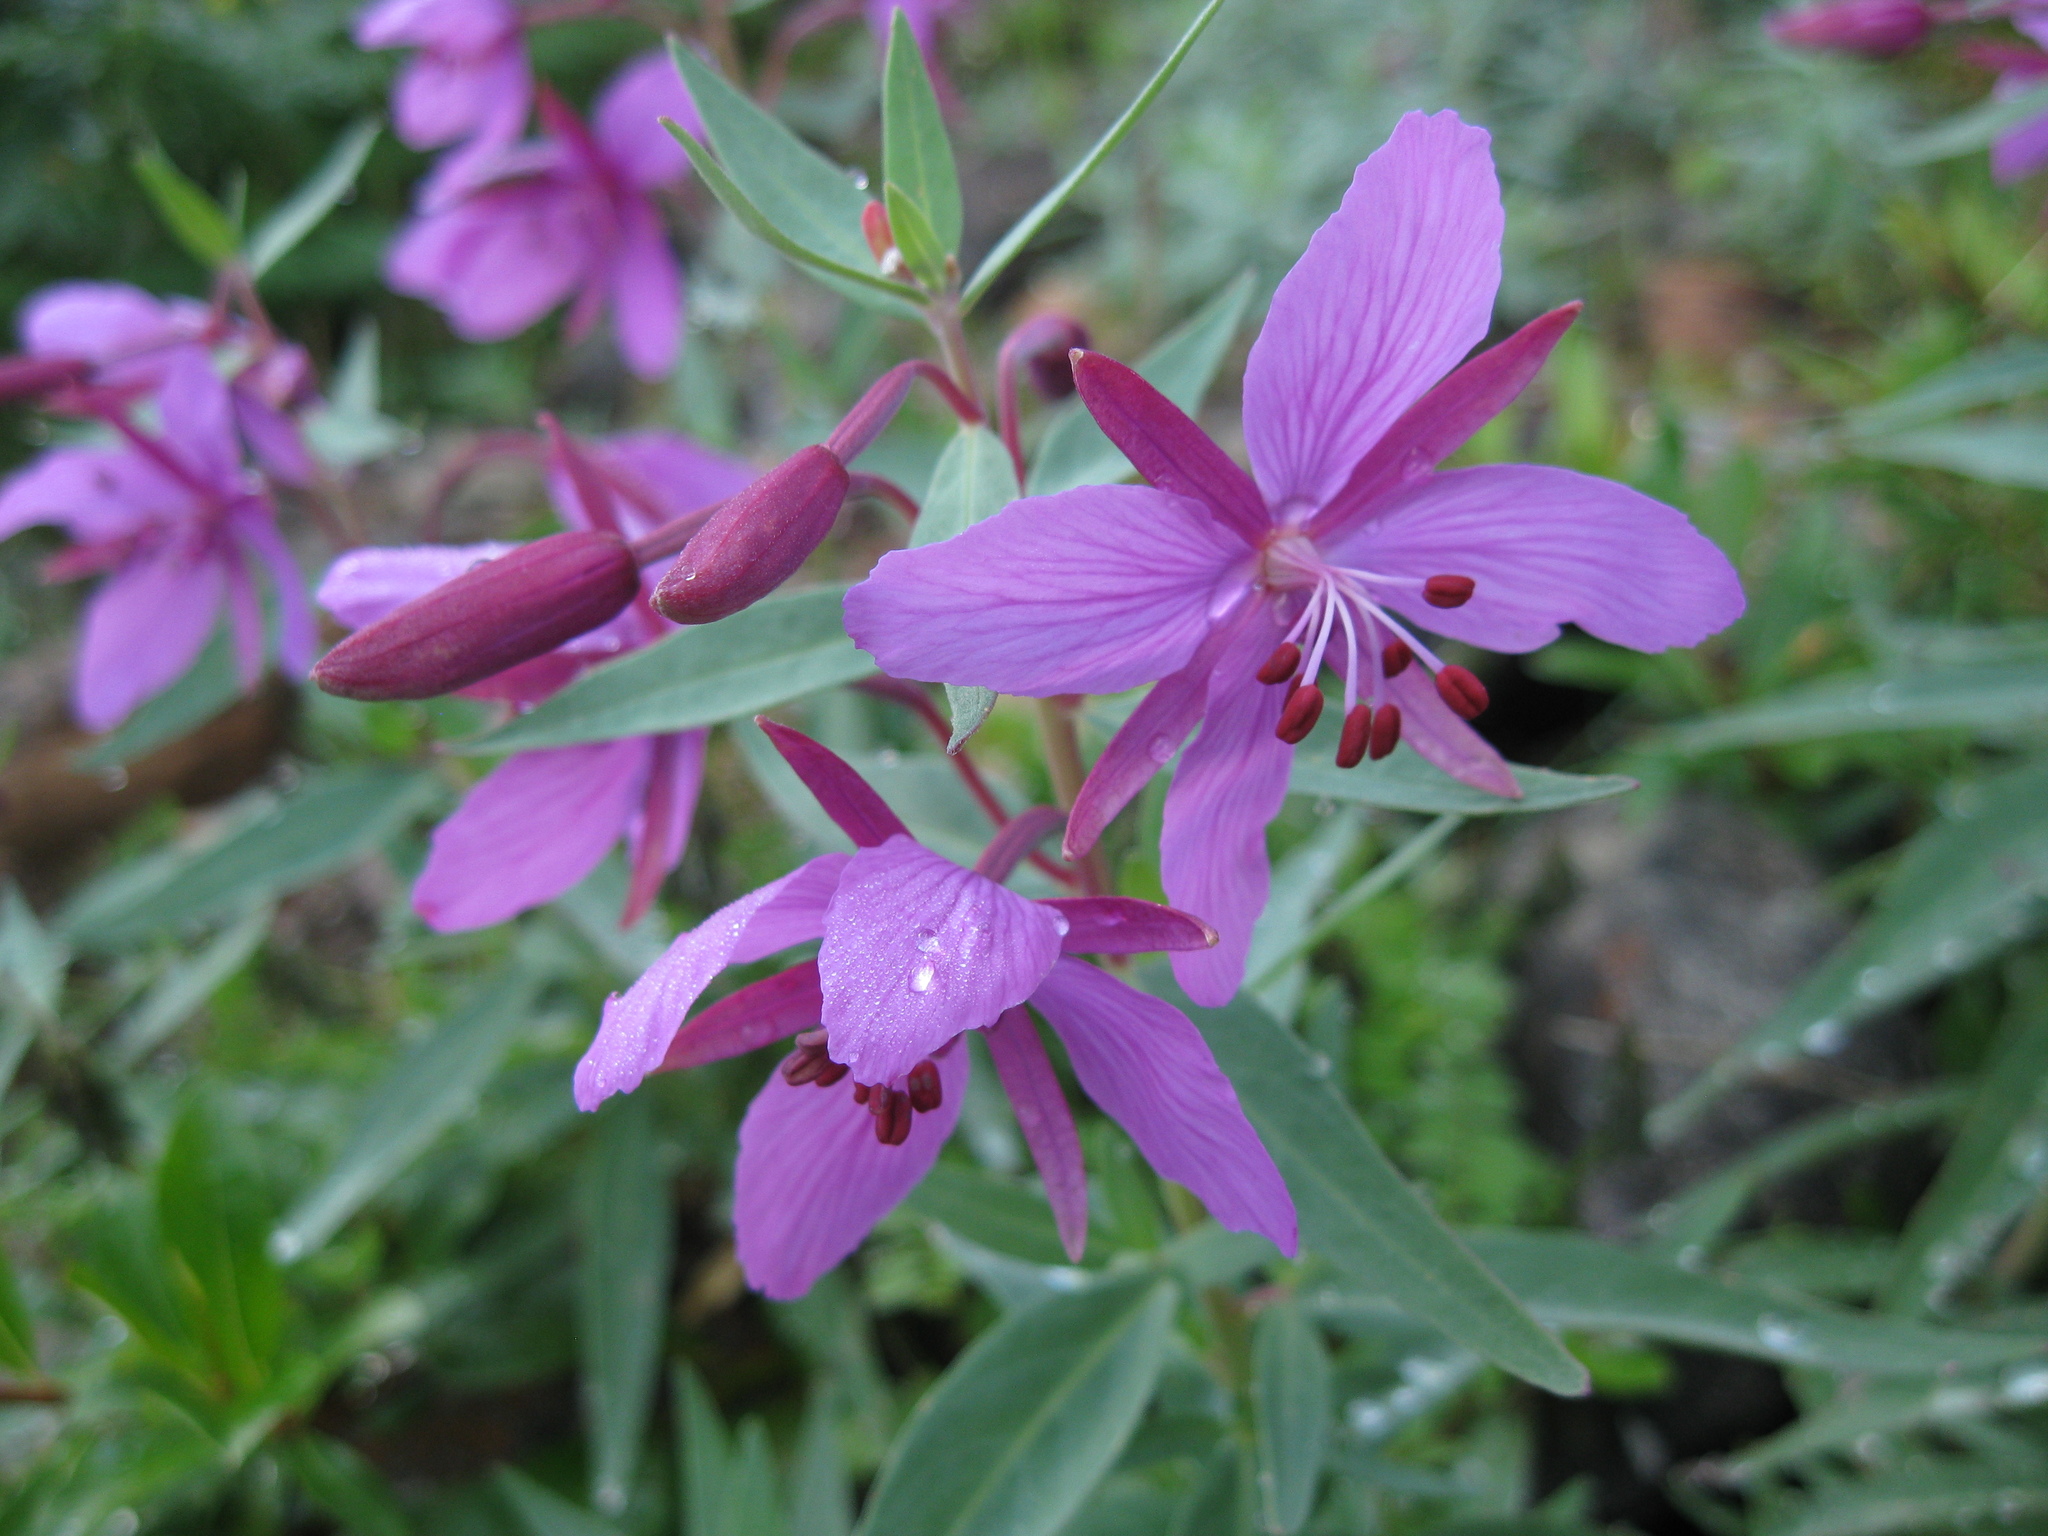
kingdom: Plantae
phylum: Tracheophyta
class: Magnoliopsida
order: Myrtales
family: Onagraceae
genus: Chamaenerion
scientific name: Chamaenerion latifolium
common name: Dwarf fireweed
